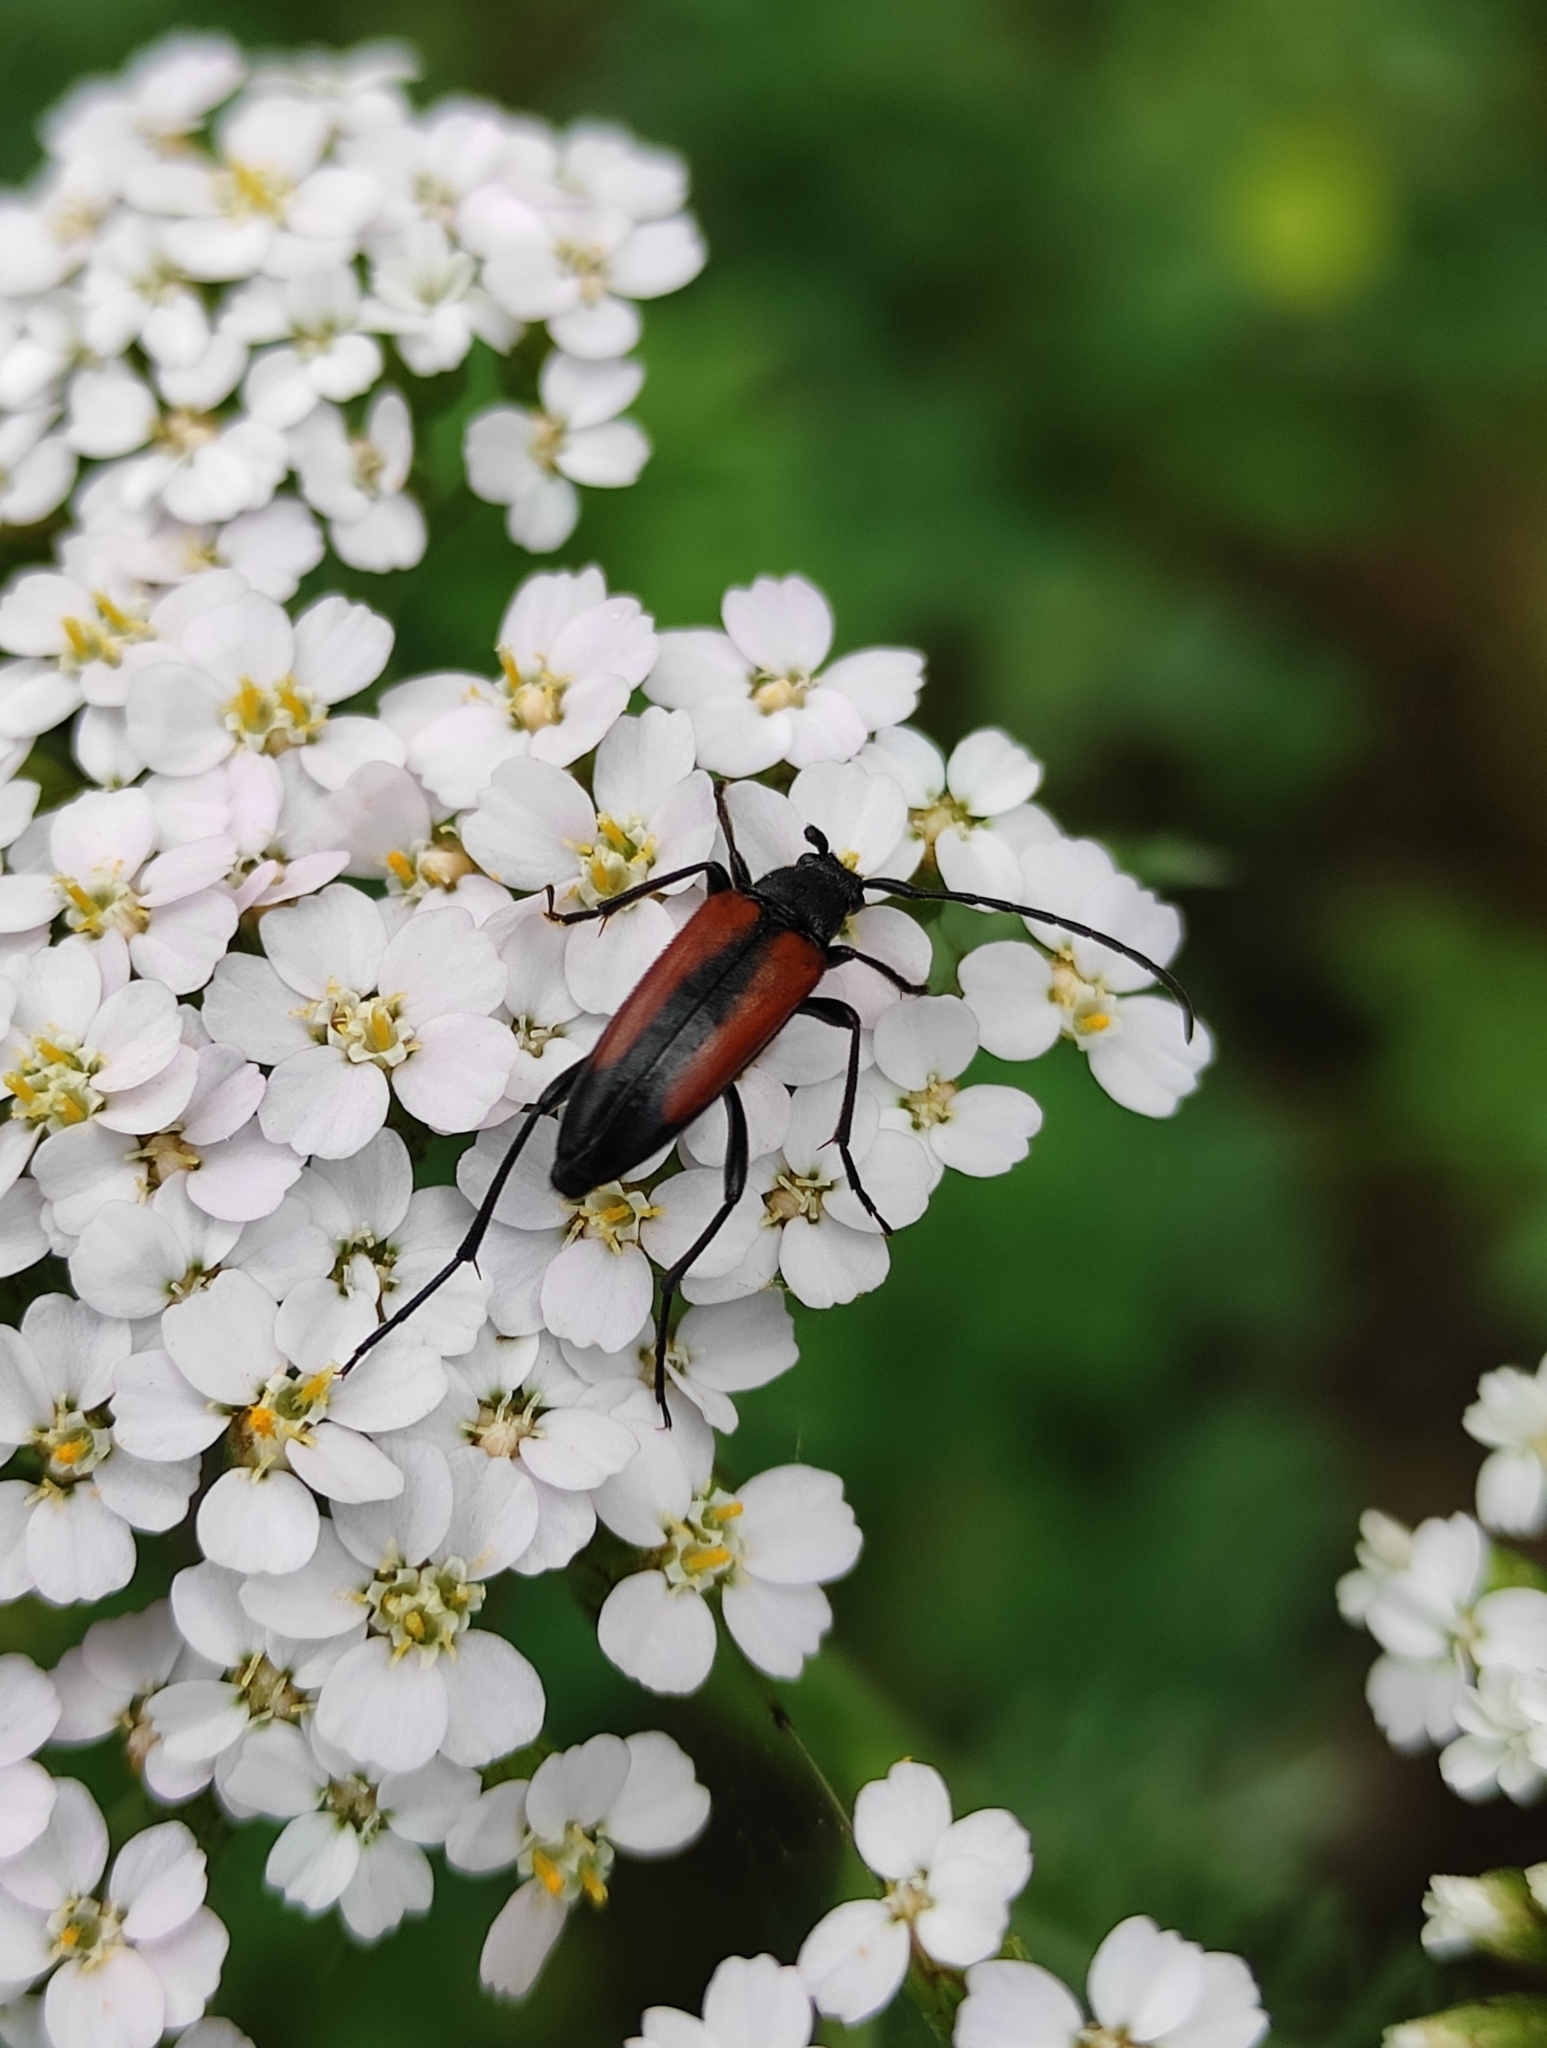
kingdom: Animalia
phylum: Arthropoda
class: Insecta
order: Coleoptera
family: Cerambycidae
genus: Stenurella
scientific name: Stenurella melanura
